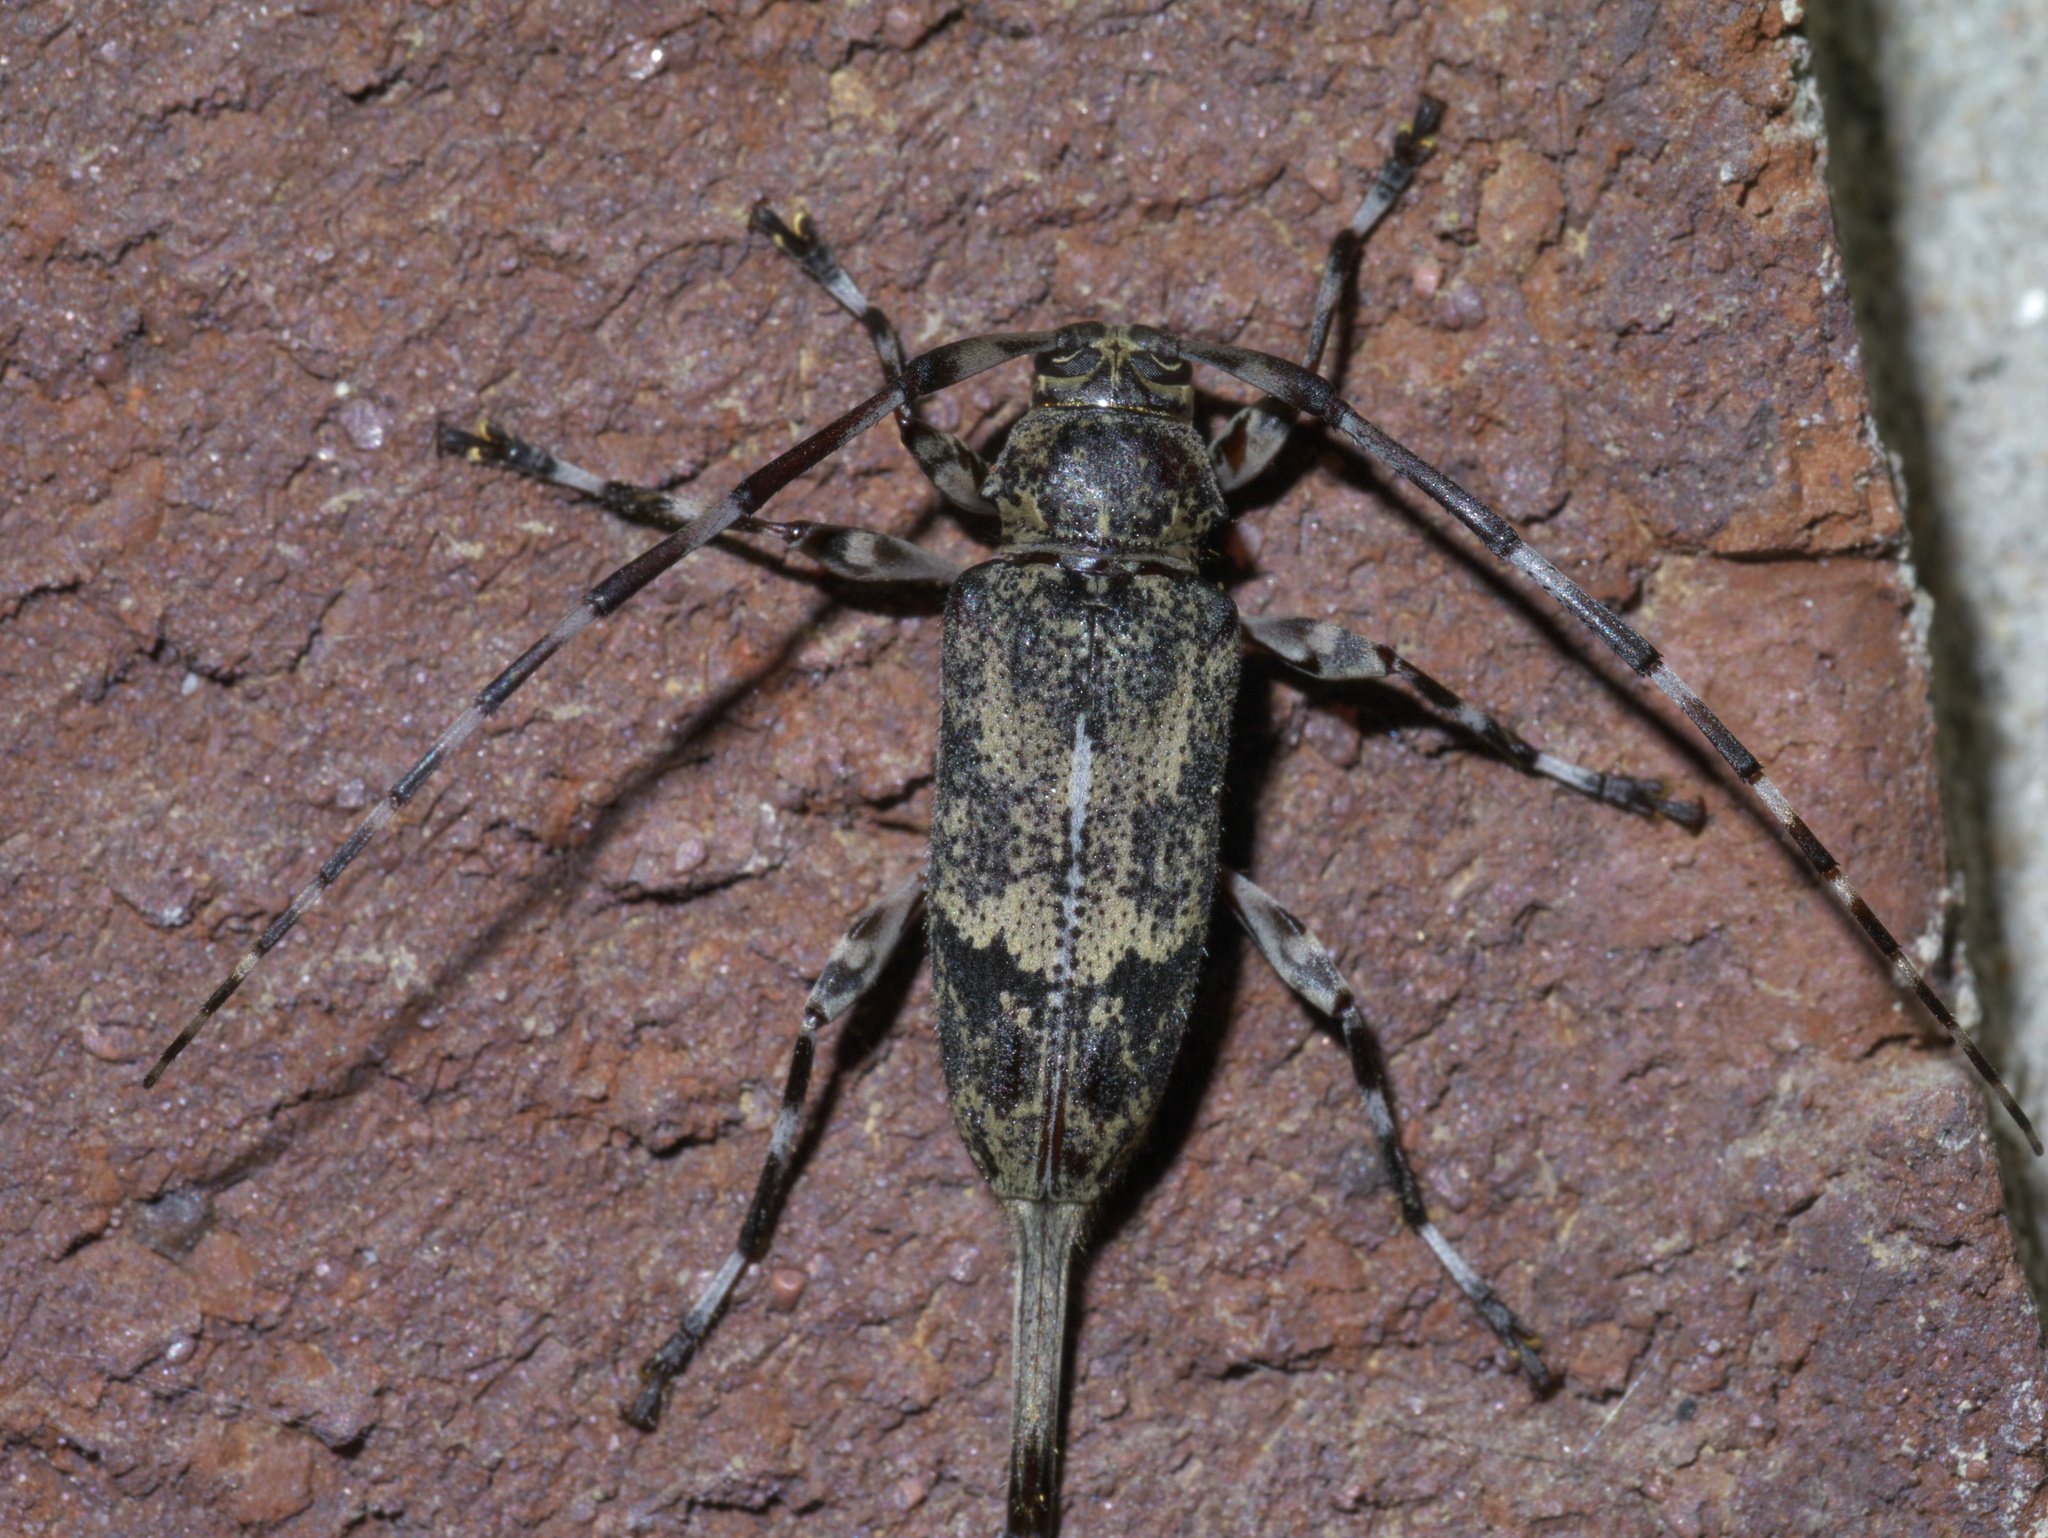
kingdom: Animalia
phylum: Arthropoda
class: Insecta
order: Coleoptera
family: Cerambycidae
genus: Graphisurus
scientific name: Graphisurus despectus
